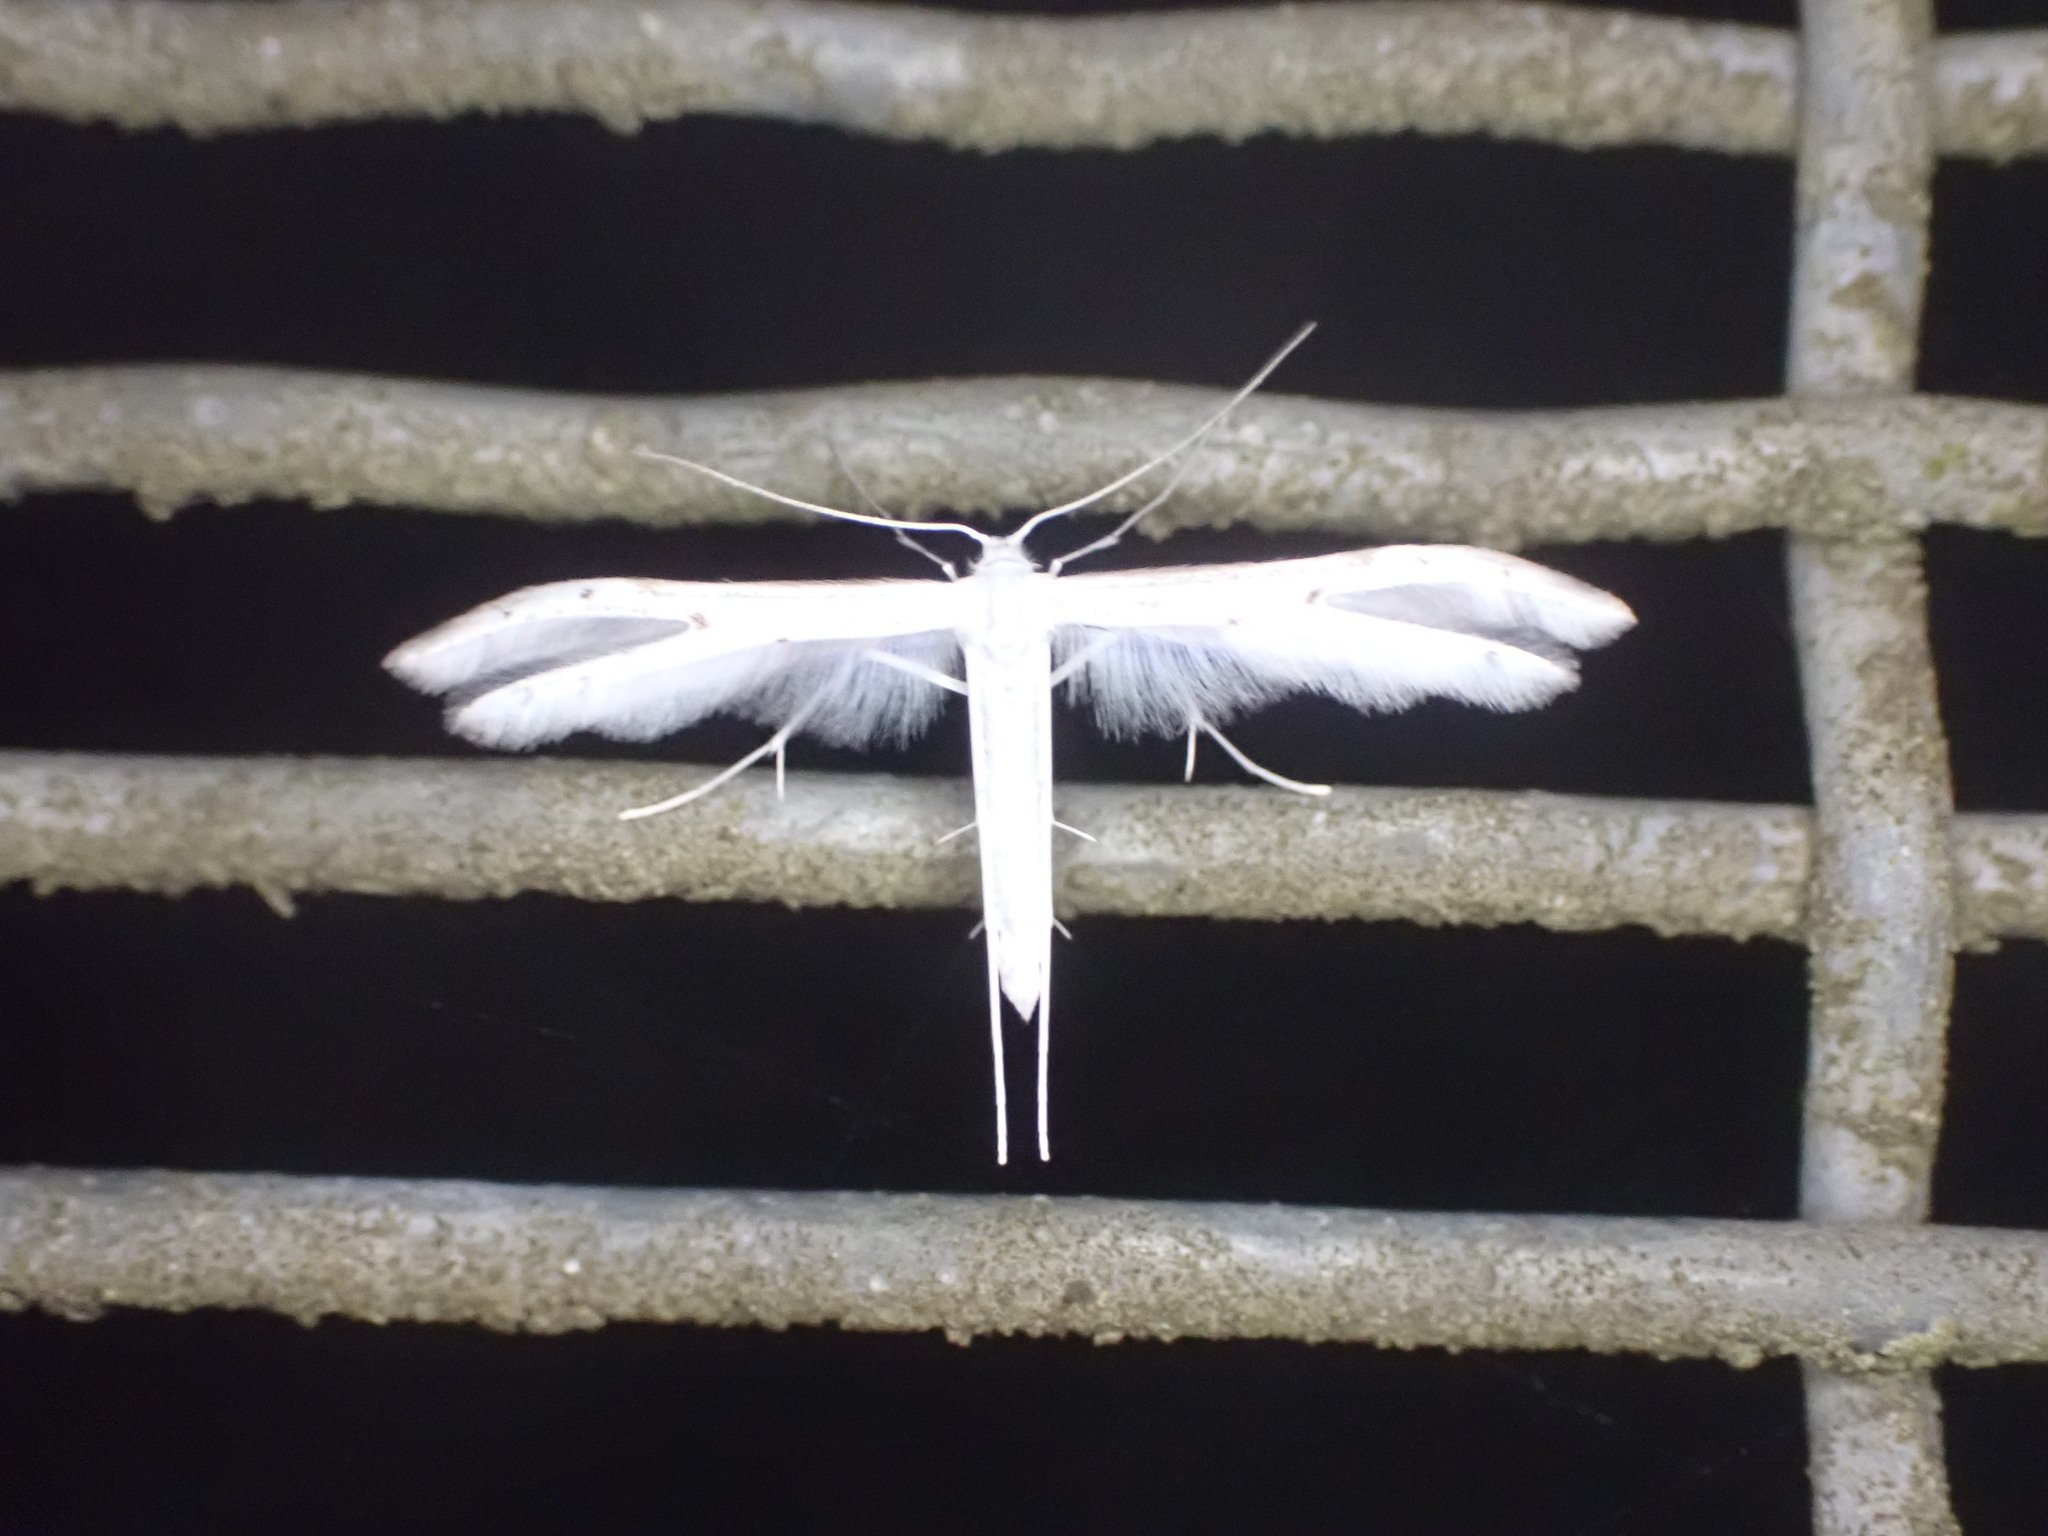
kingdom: Animalia
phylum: Arthropoda
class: Insecta
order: Lepidoptera
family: Pterophoridae
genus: Pterophorus
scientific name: Pterophorus monospilalis
